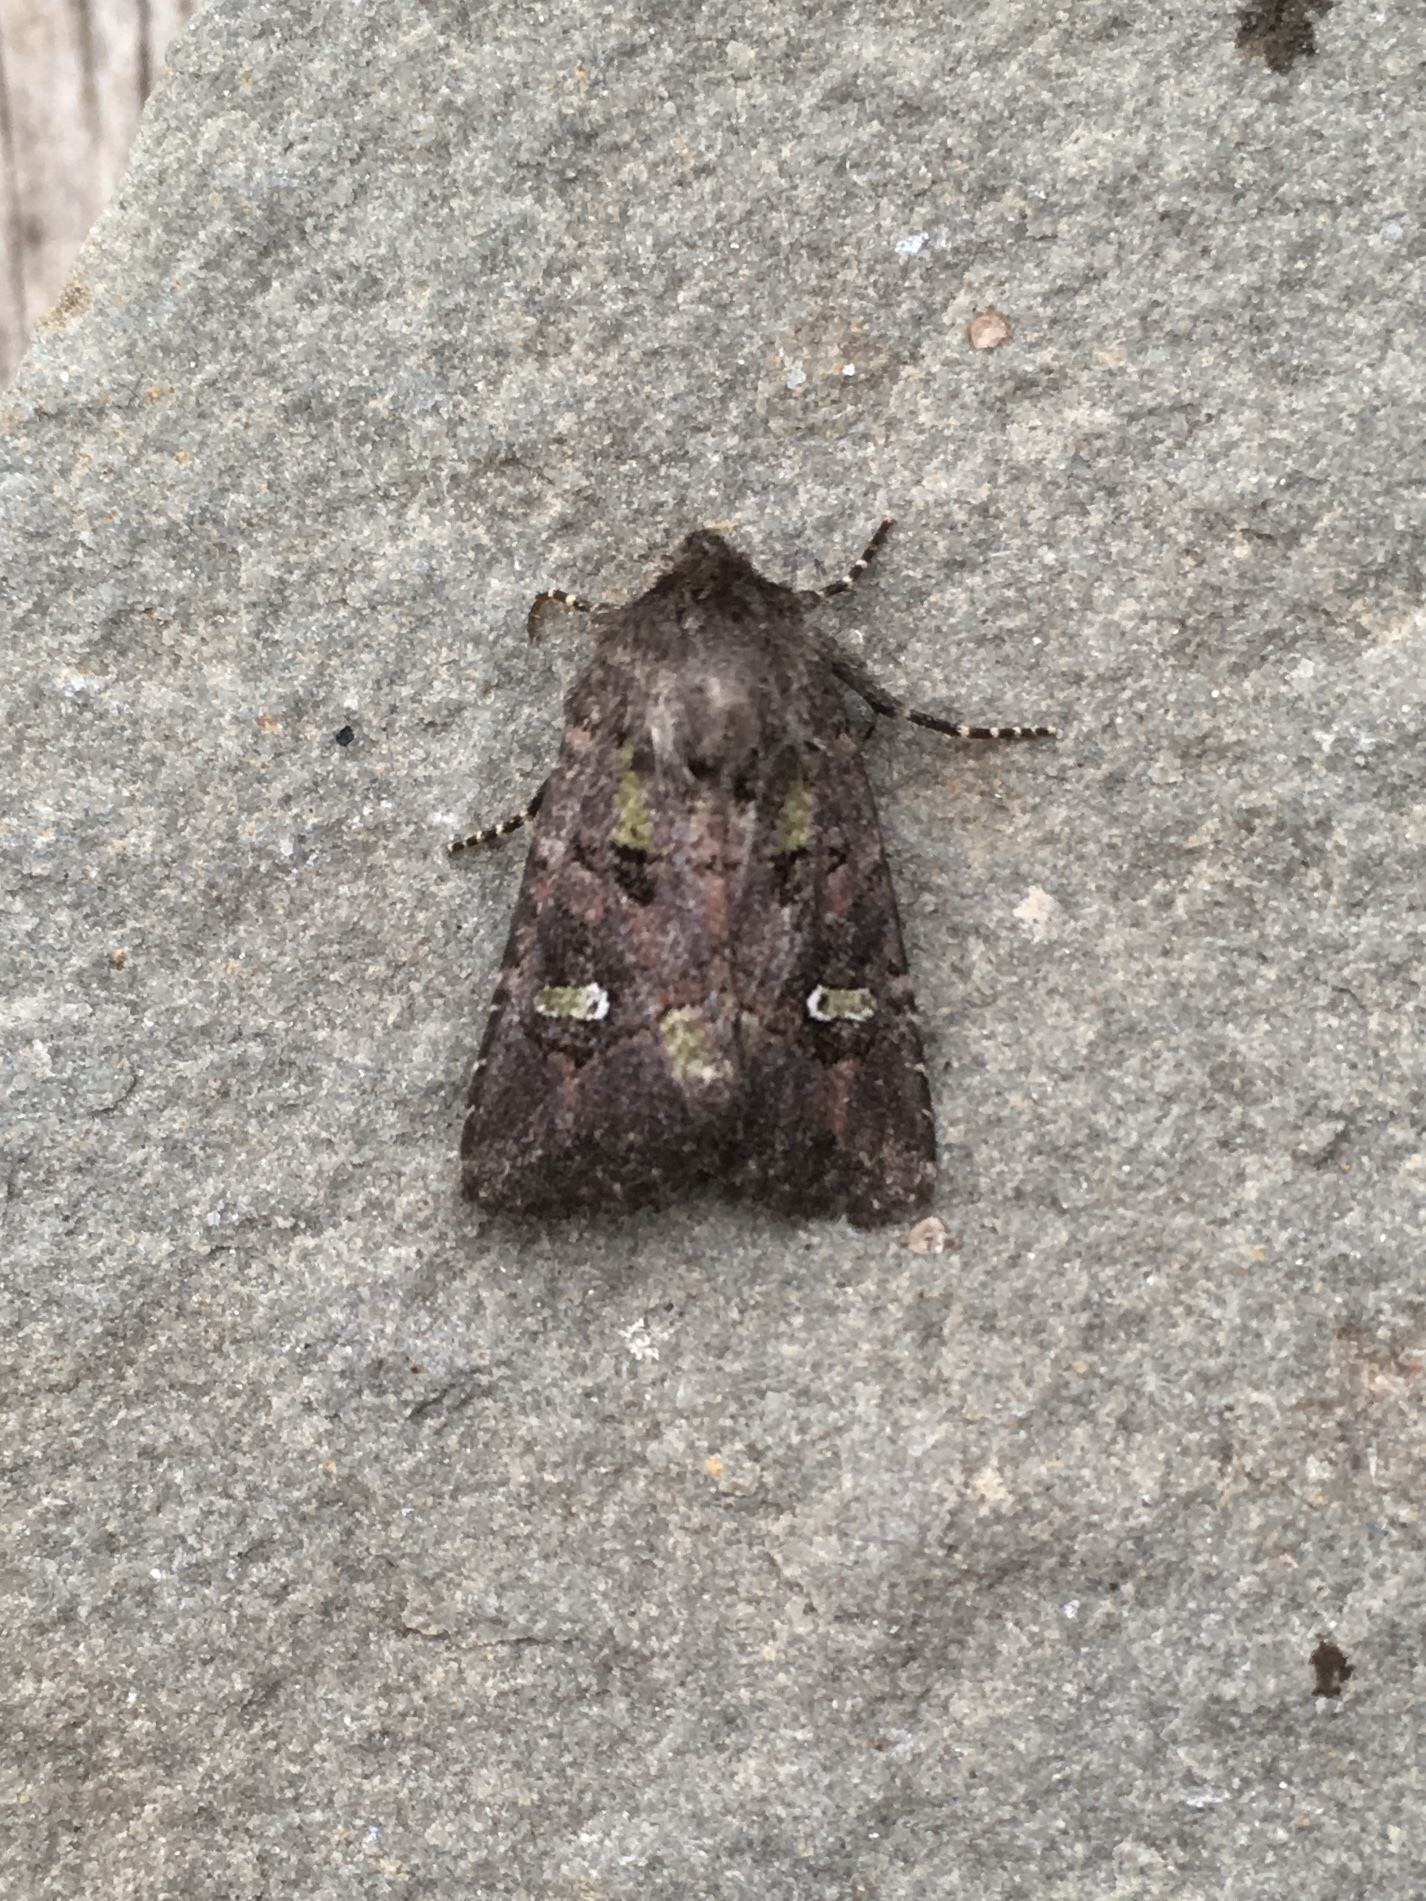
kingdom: Animalia
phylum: Arthropoda
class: Insecta
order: Lepidoptera
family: Noctuidae
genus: Lacinipolia
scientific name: Lacinipolia renigera
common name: Kidney-spotted minor
